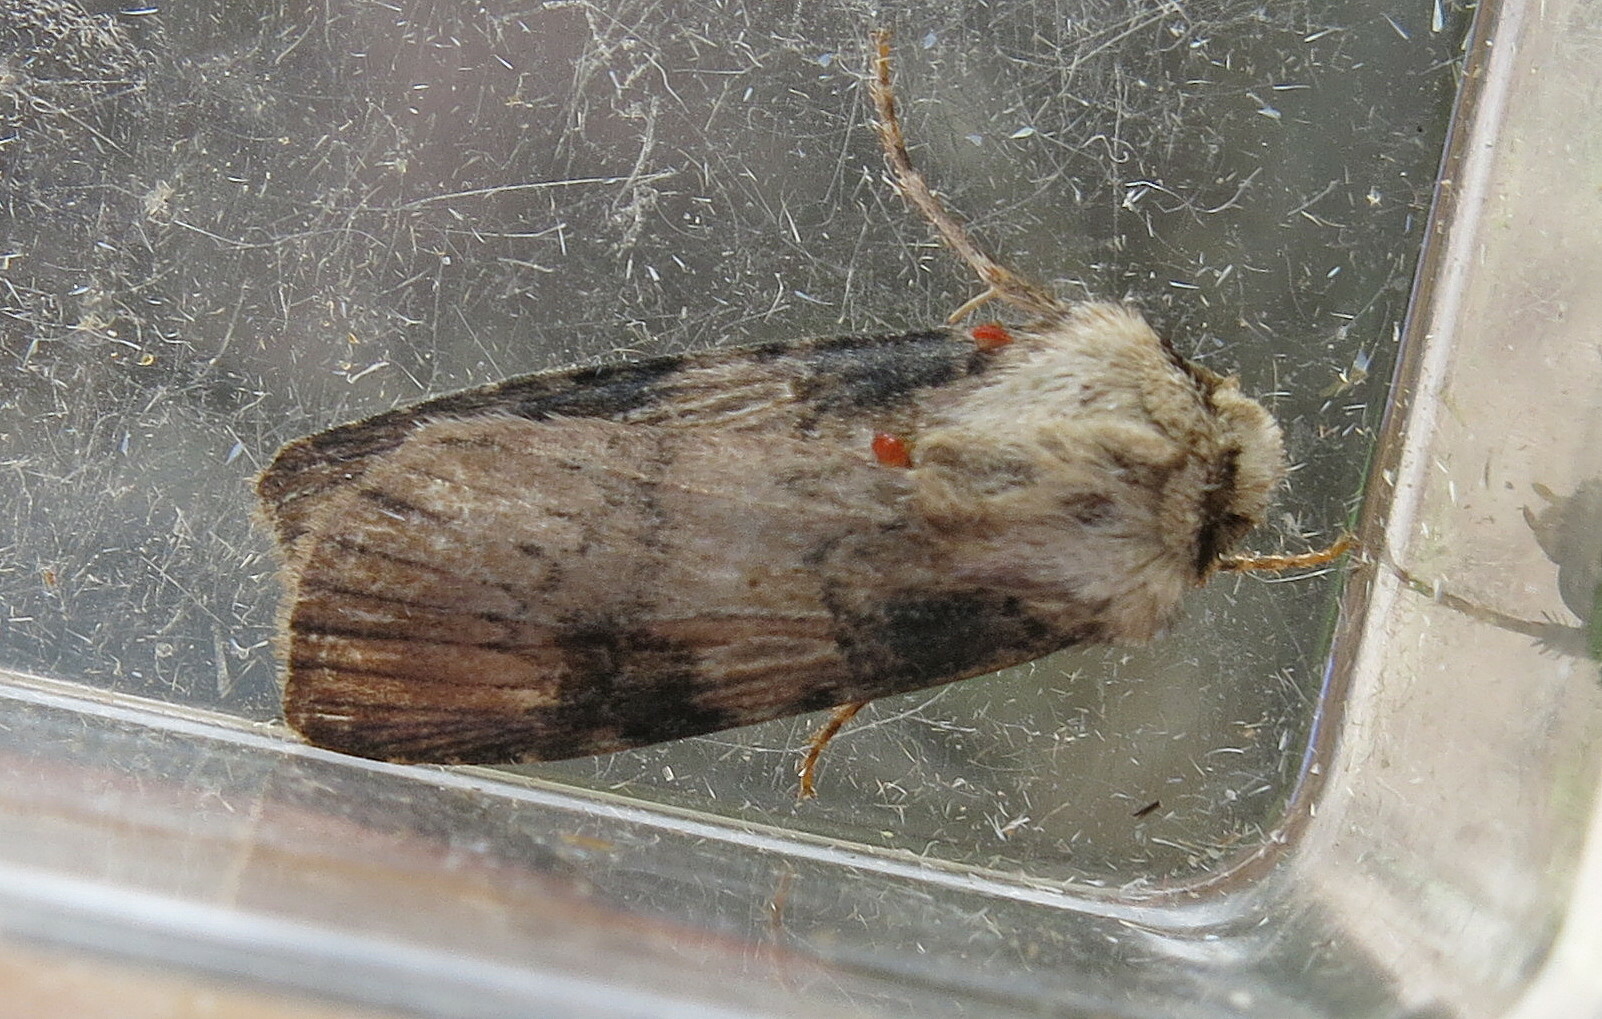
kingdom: Animalia
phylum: Arthropoda
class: Insecta
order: Lepidoptera
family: Noctuidae
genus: Agrotis
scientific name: Agrotis puta
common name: Shuttle-shaped dart
